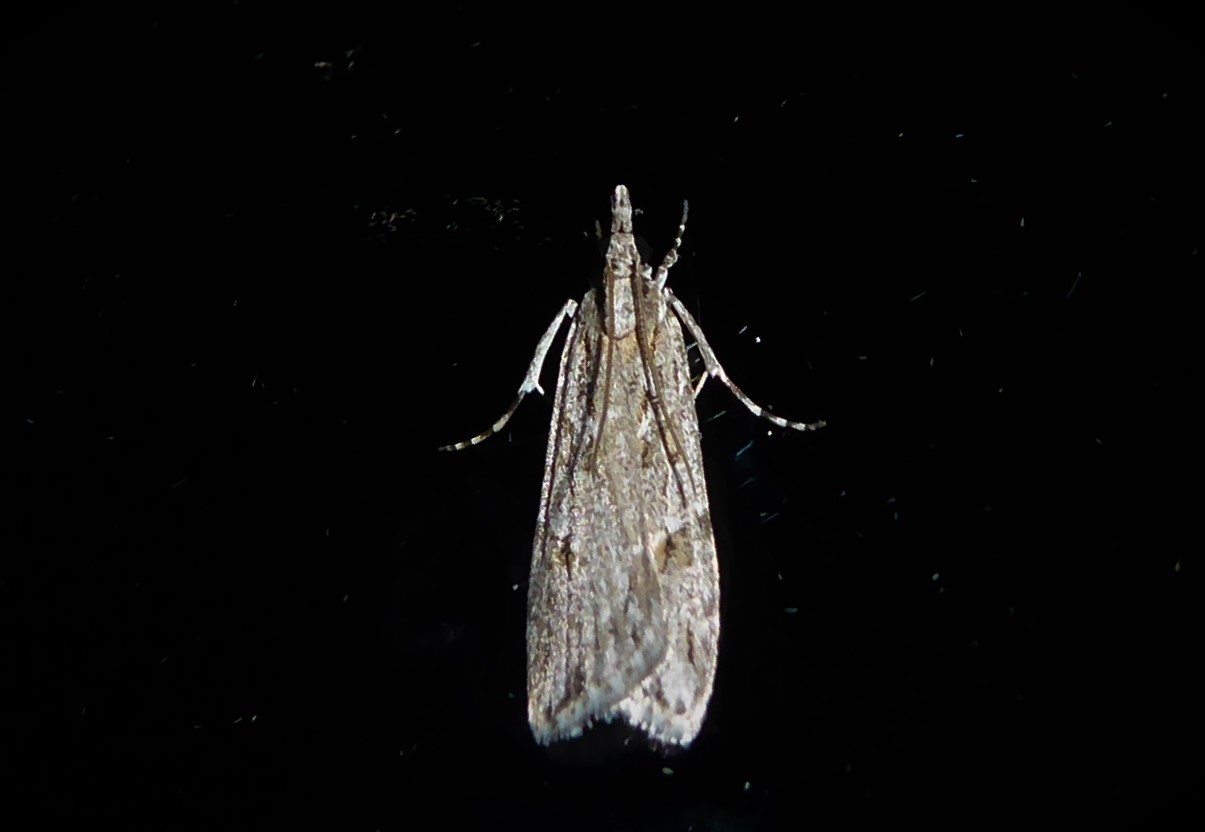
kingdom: Animalia
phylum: Arthropoda
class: Insecta
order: Lepidoptera
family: Crambidae
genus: Scoparia
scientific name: Scoparia chalicodes
